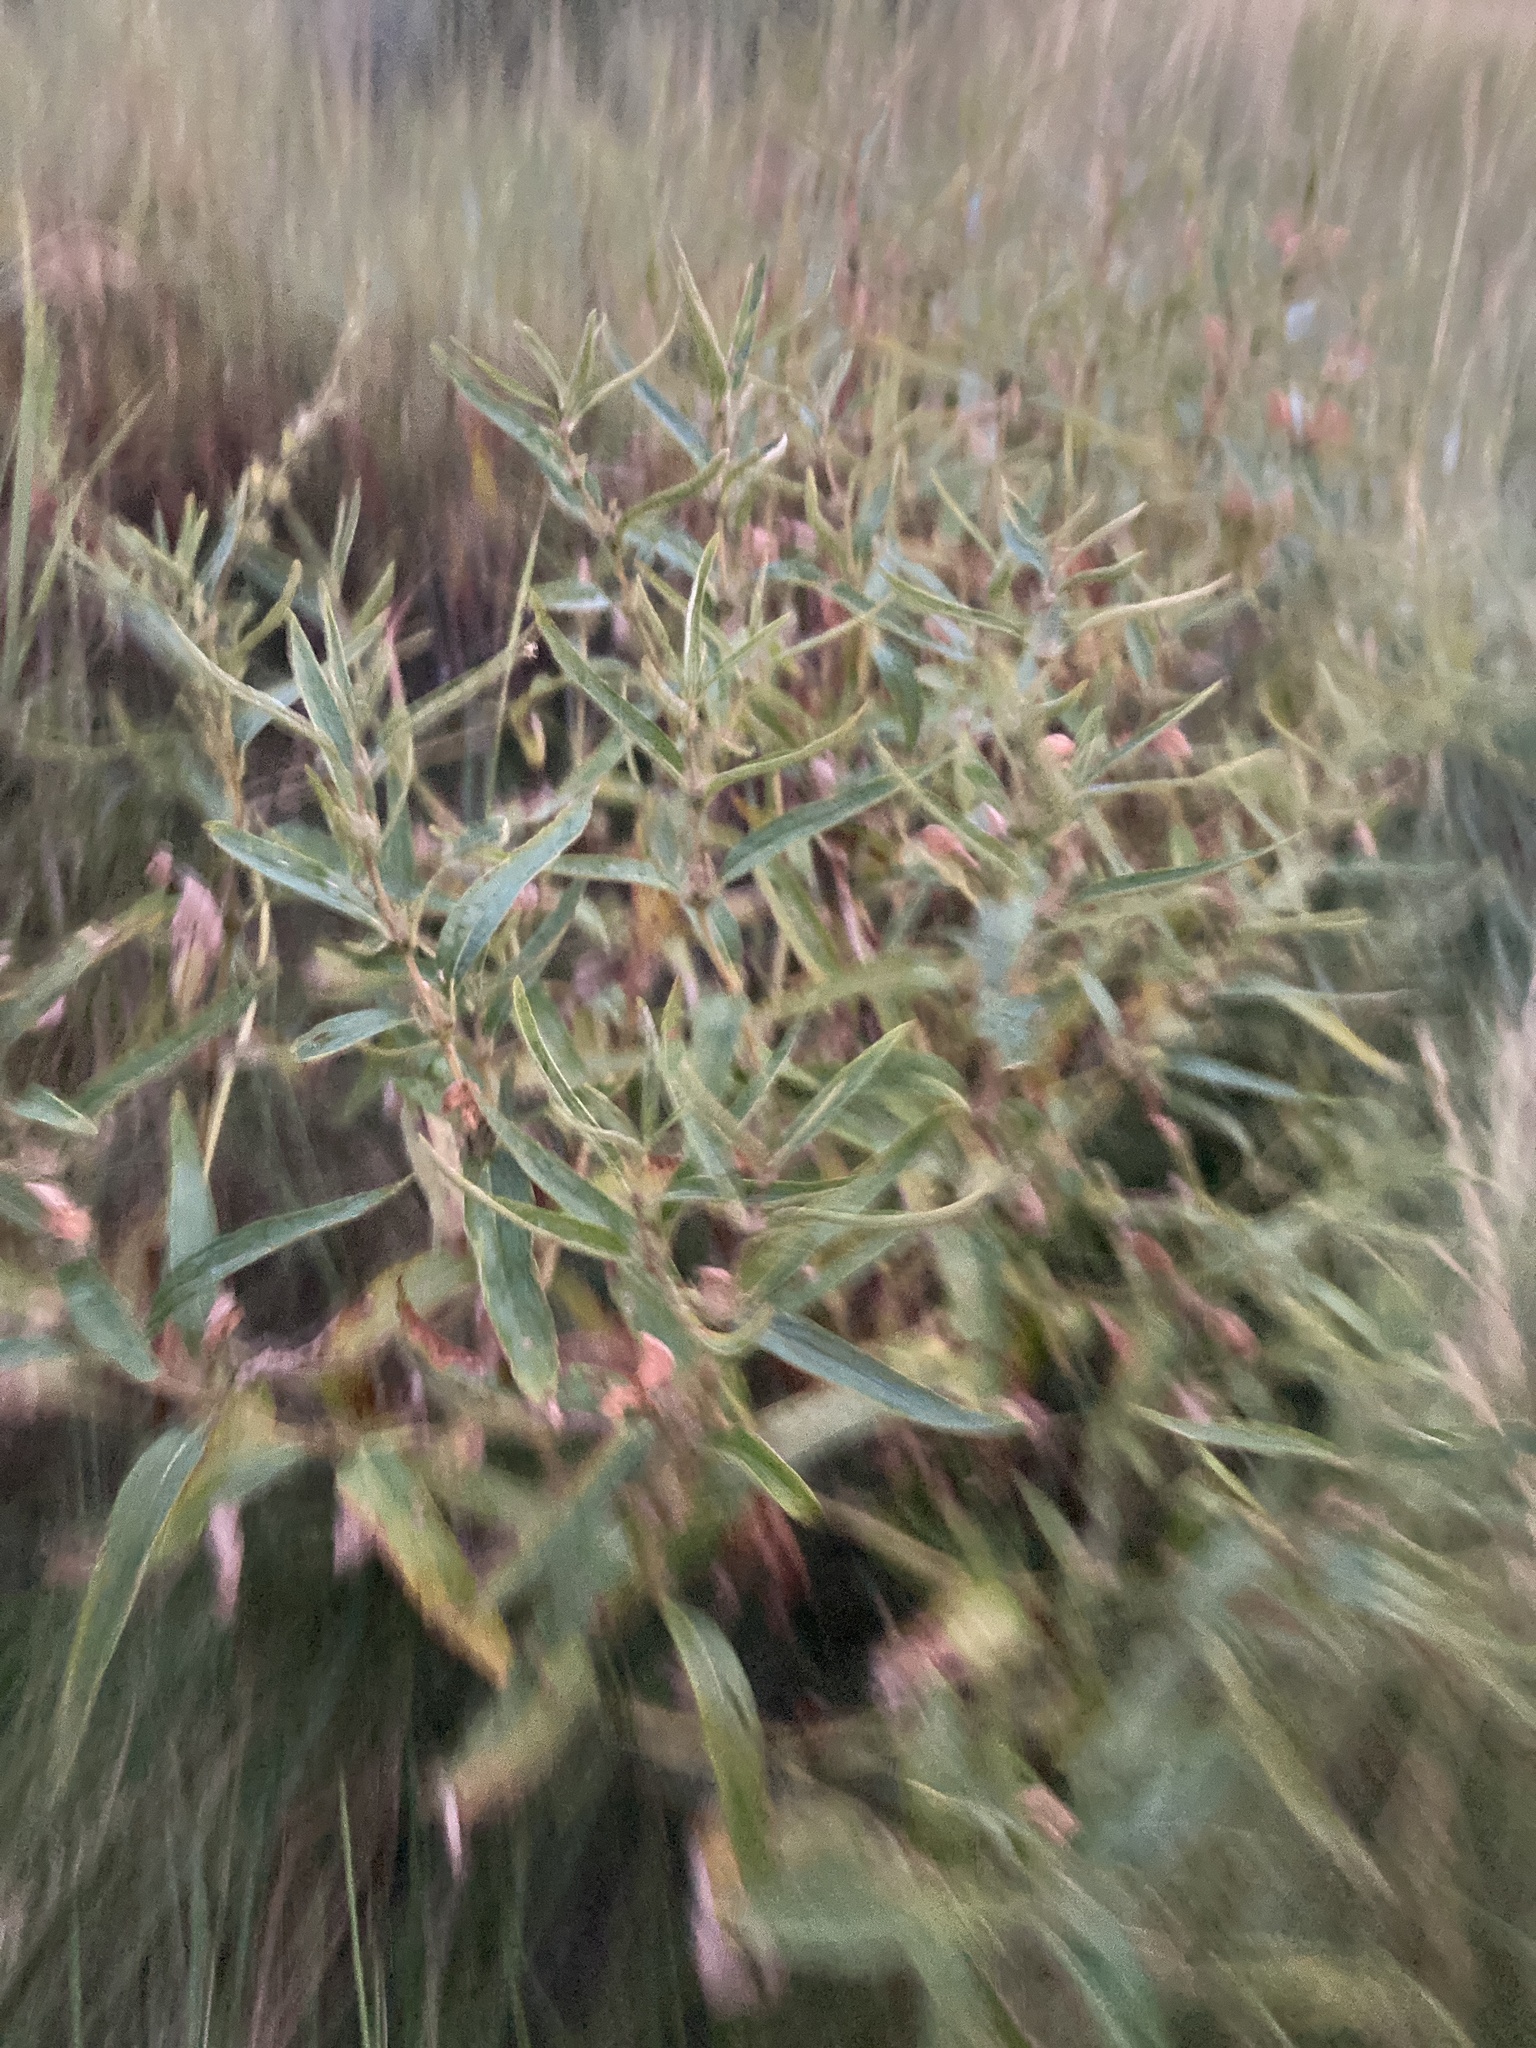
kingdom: Plantae
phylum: Tracheophyta
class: Magnoliopsida
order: Lamiales
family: Lamiaceae
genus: Phlomis
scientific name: Phlomis herba-venti
